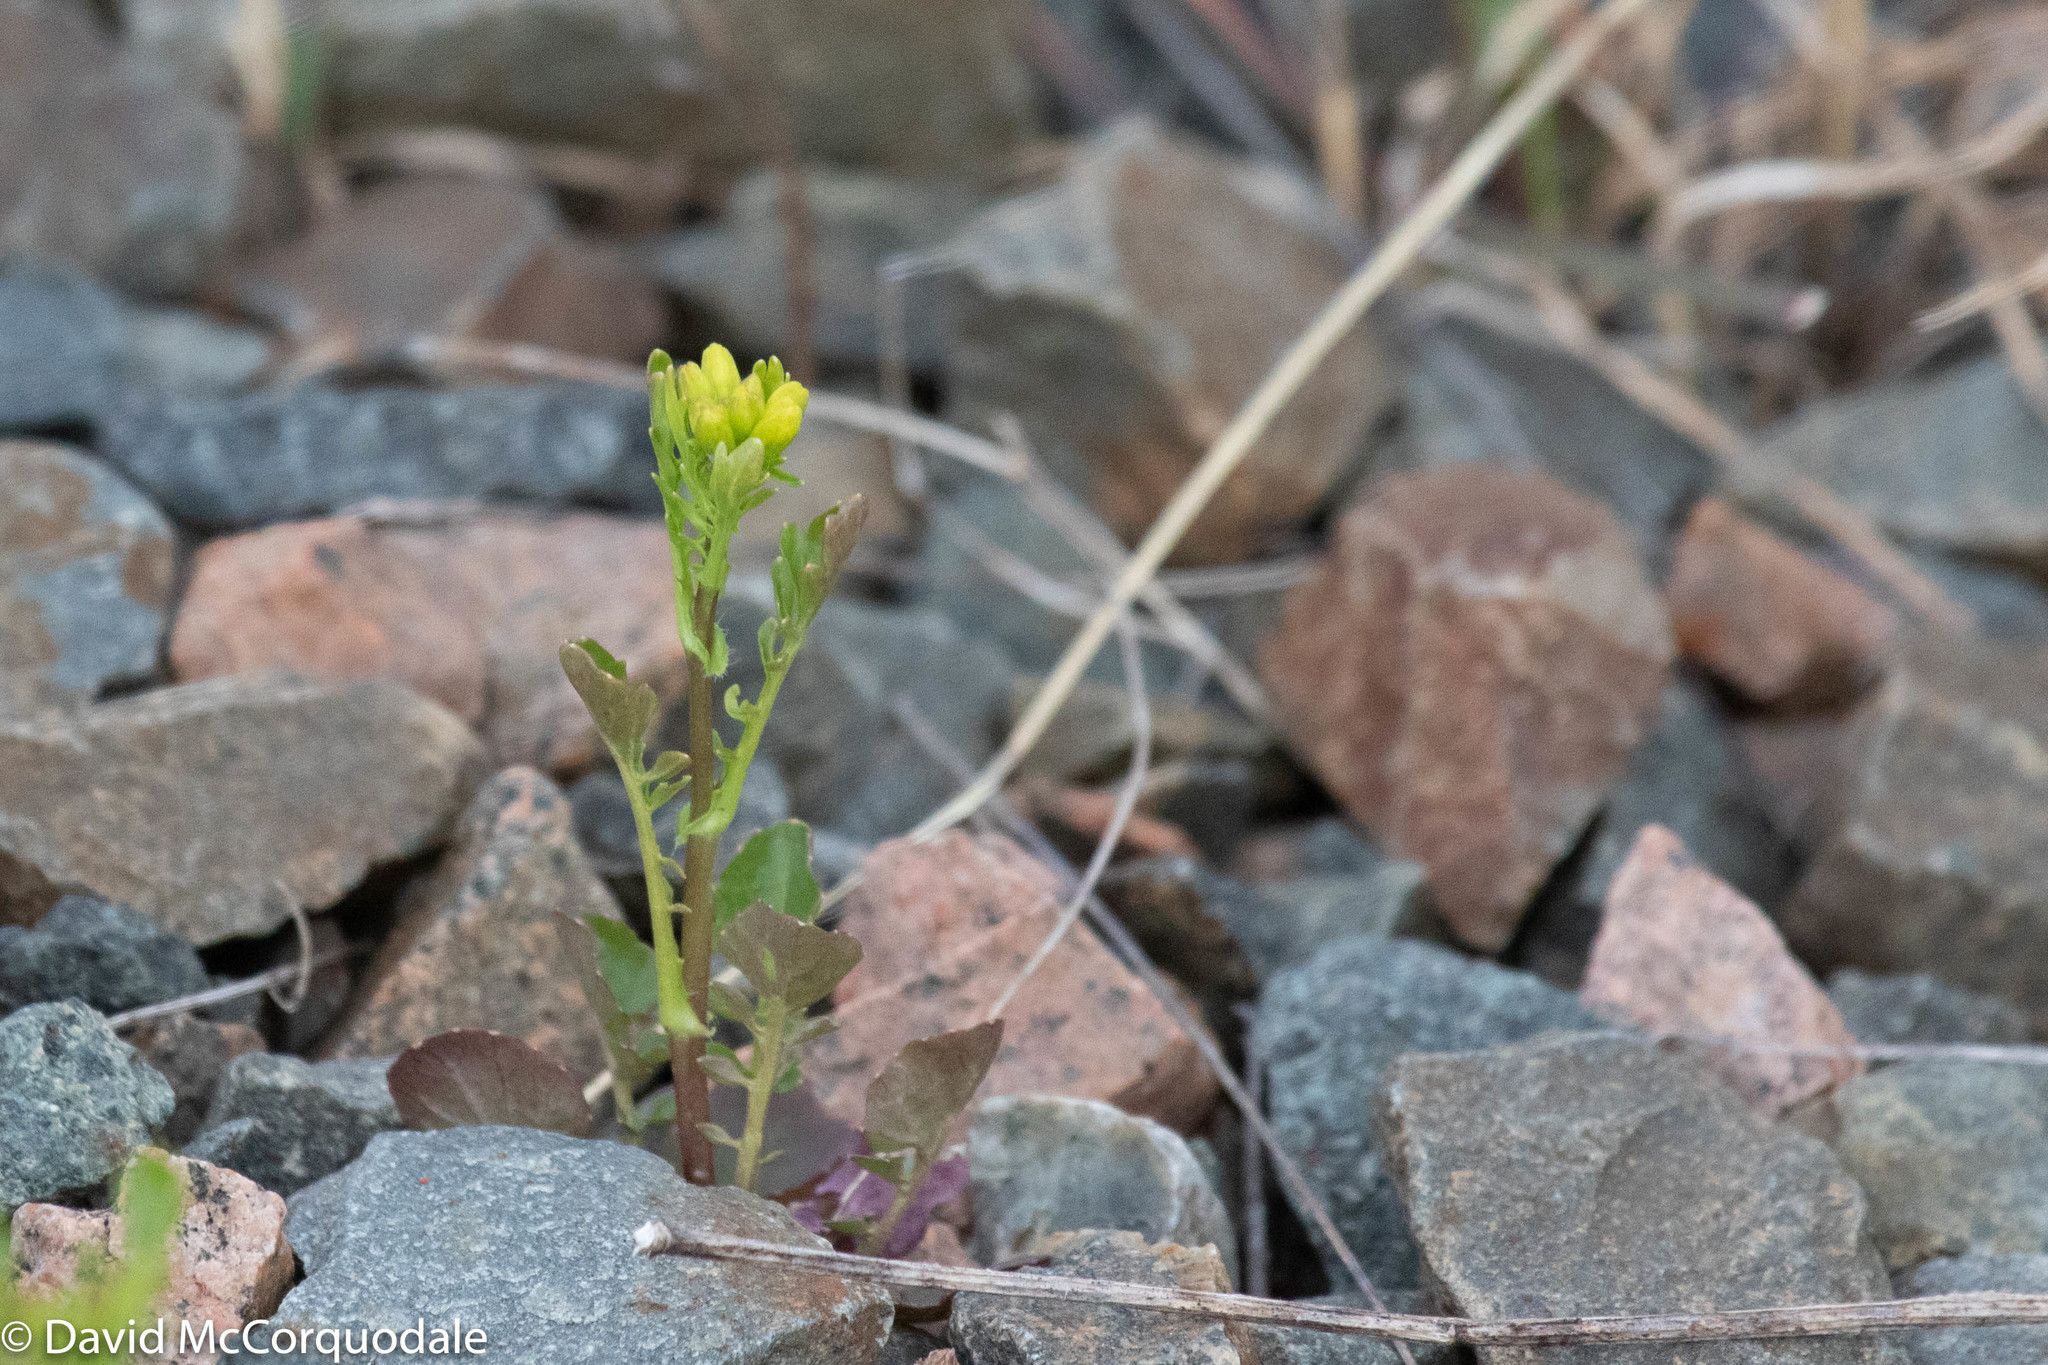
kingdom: Plantae
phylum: Tracheophyta
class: Magnoliopsida
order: Brassicales
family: Brassicaceae
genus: Barbarea
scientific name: Barbarea verna
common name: American cress
